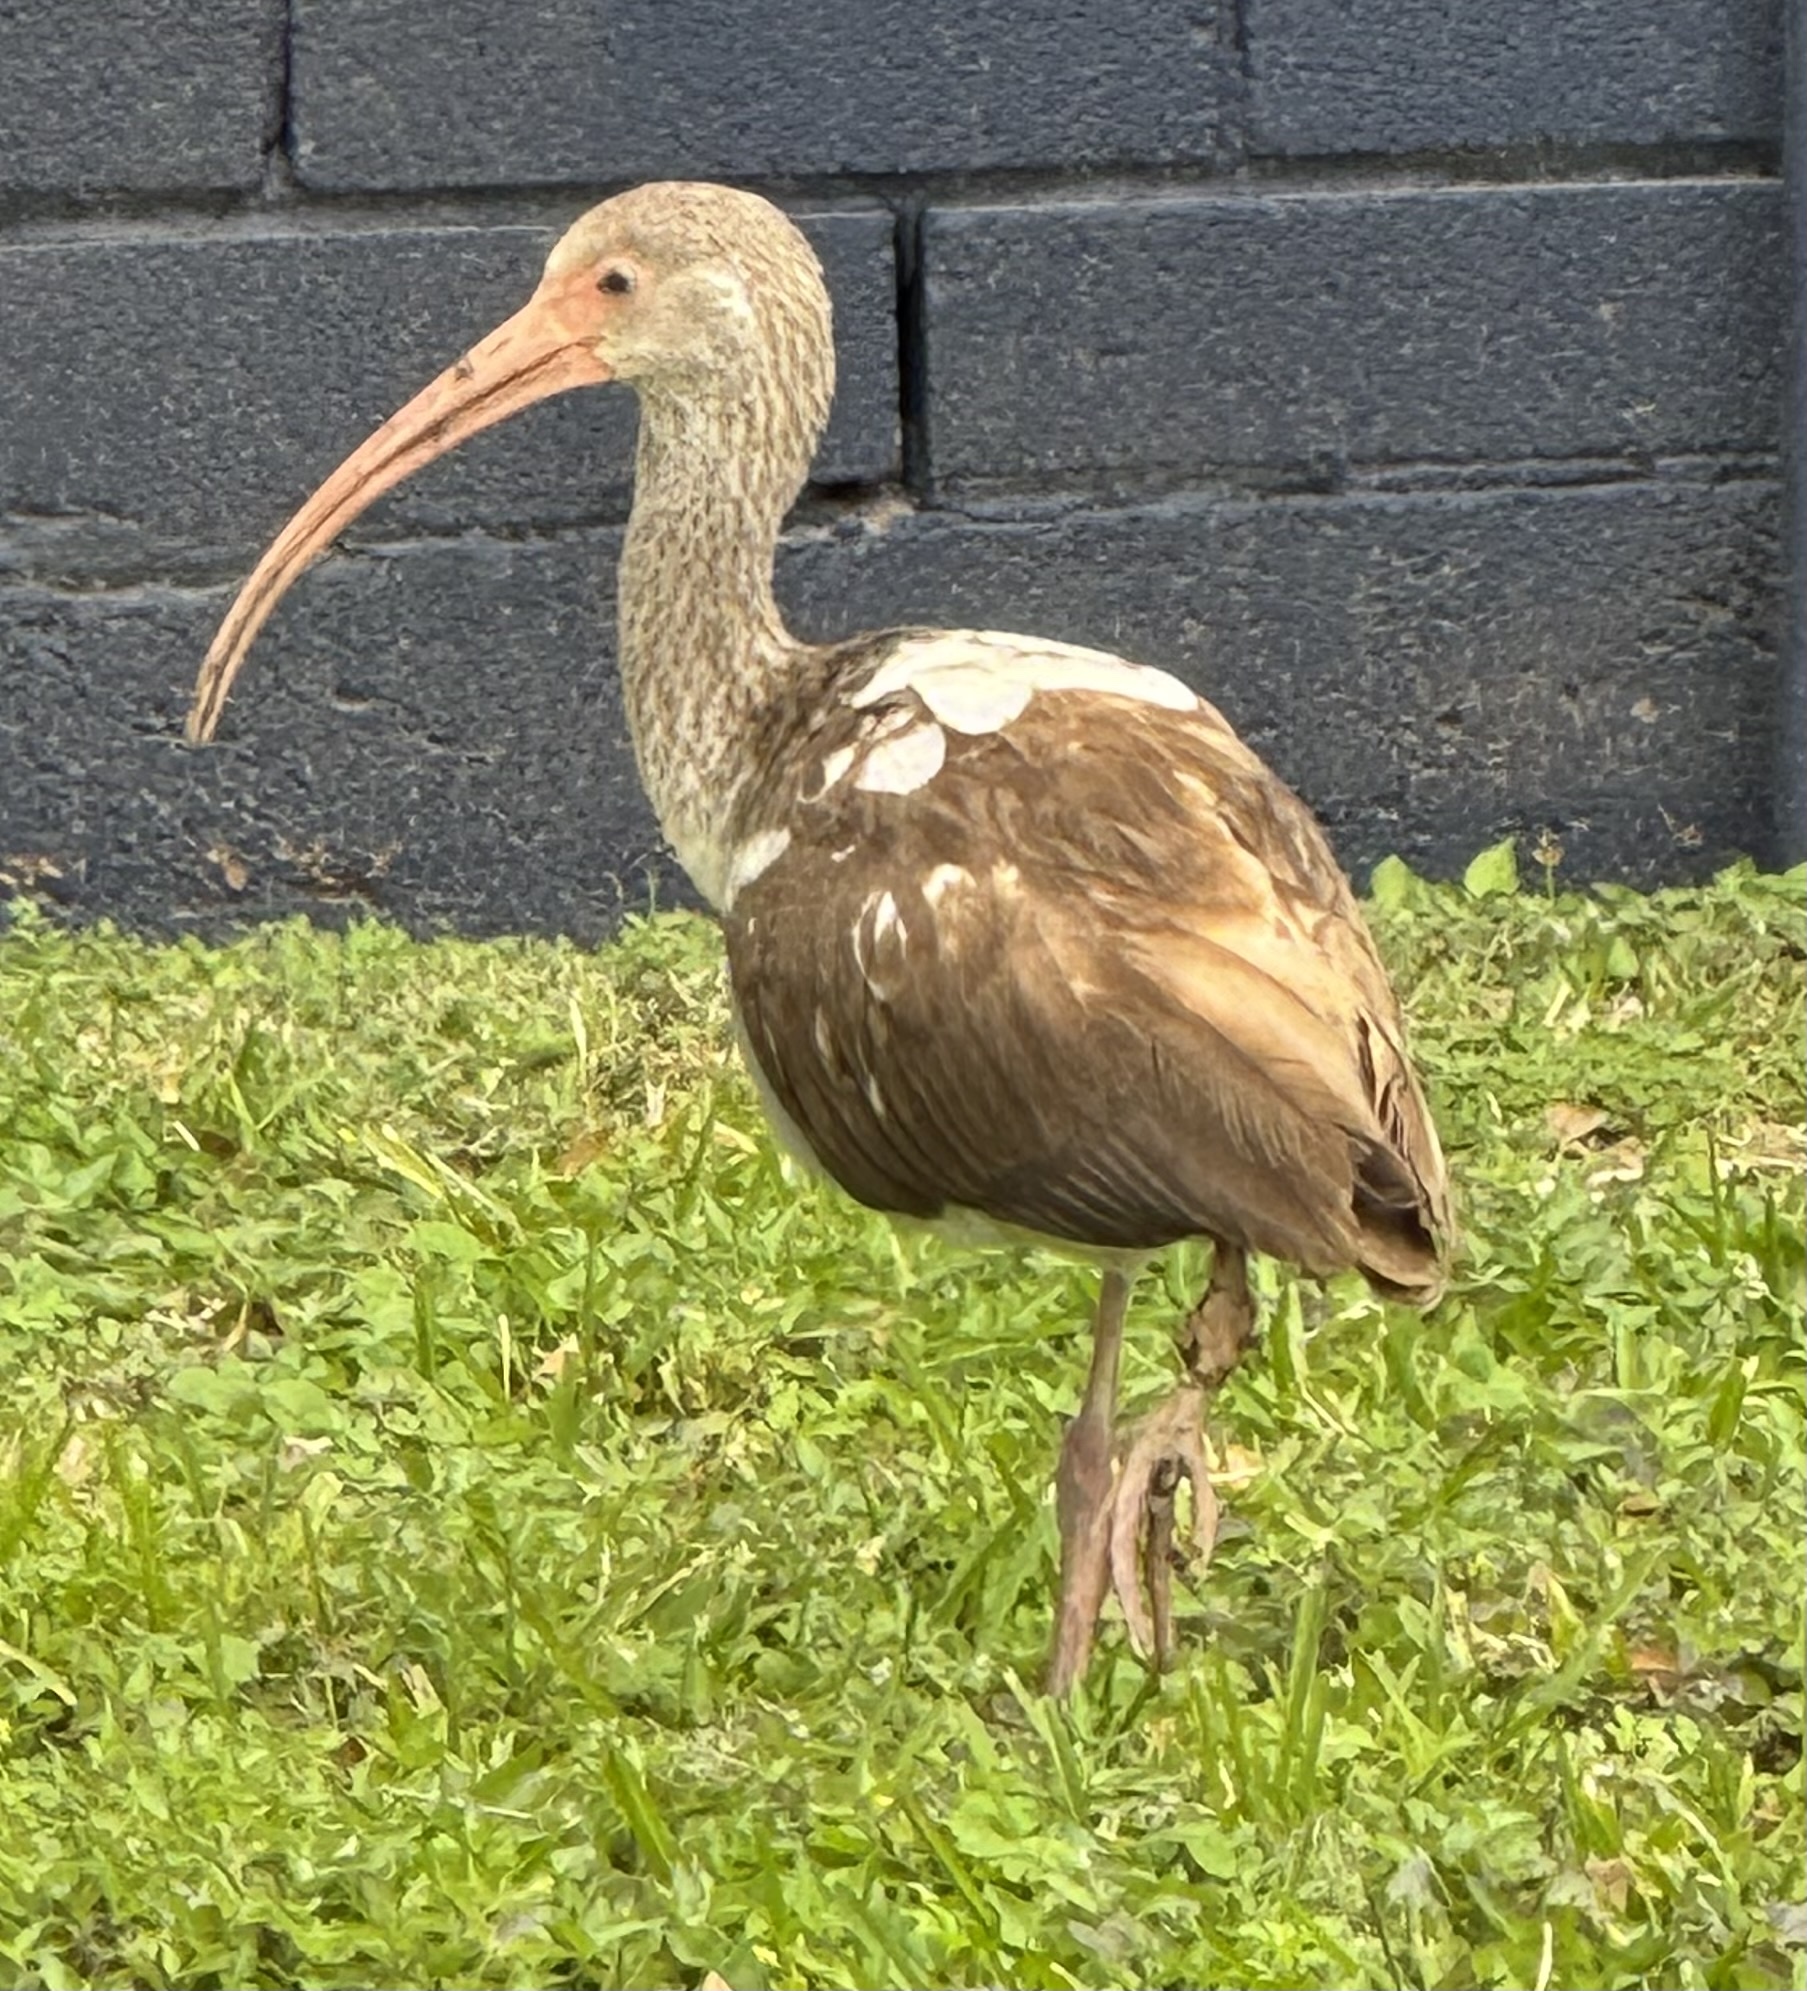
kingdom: Animalia
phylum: Chordata
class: Aves
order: Pelecaniformes
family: Threskiornithidae
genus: Eudocimus
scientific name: Eudocimus albus
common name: White ibis
